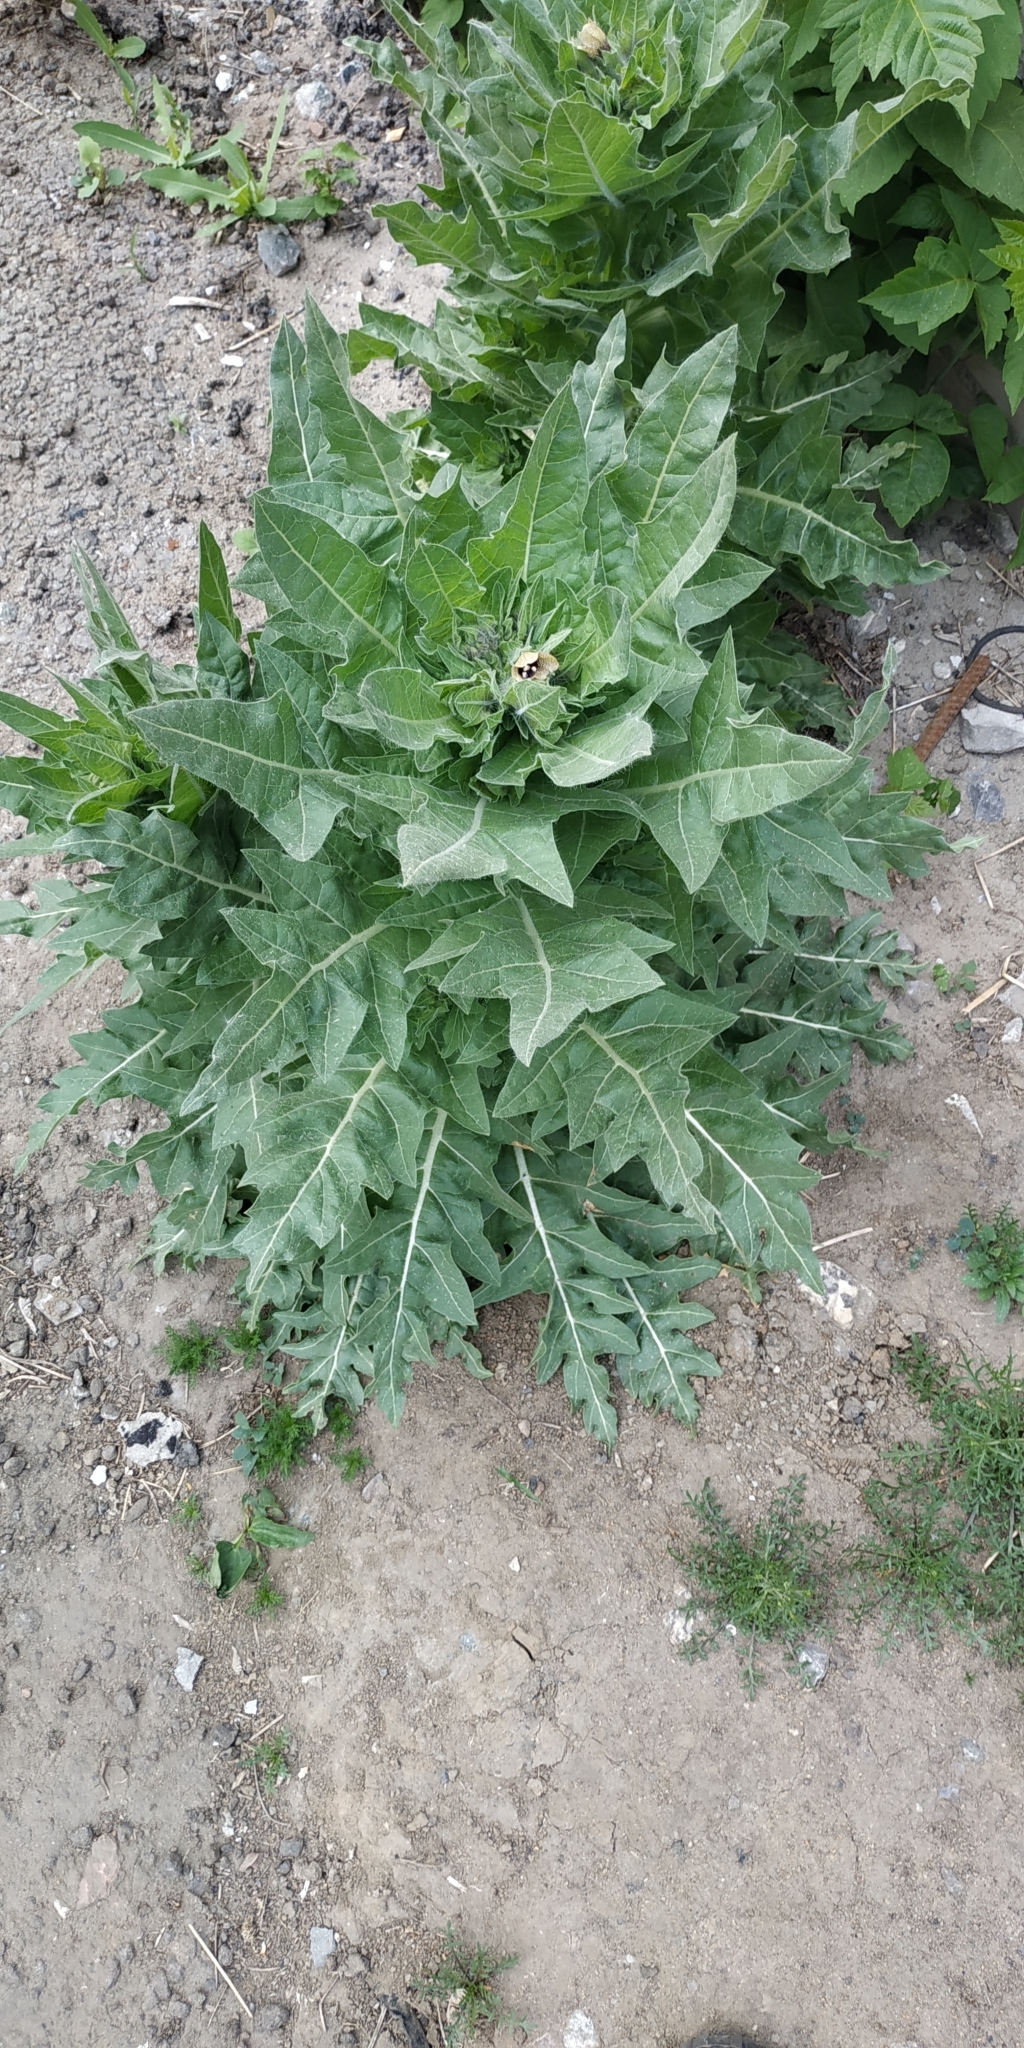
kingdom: Plantae
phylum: Tracheophyta
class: Magnoliopsida
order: Solanales
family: Solanaceae
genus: Hyoscyamus
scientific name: Hyoscyamus niger
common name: Henbane
